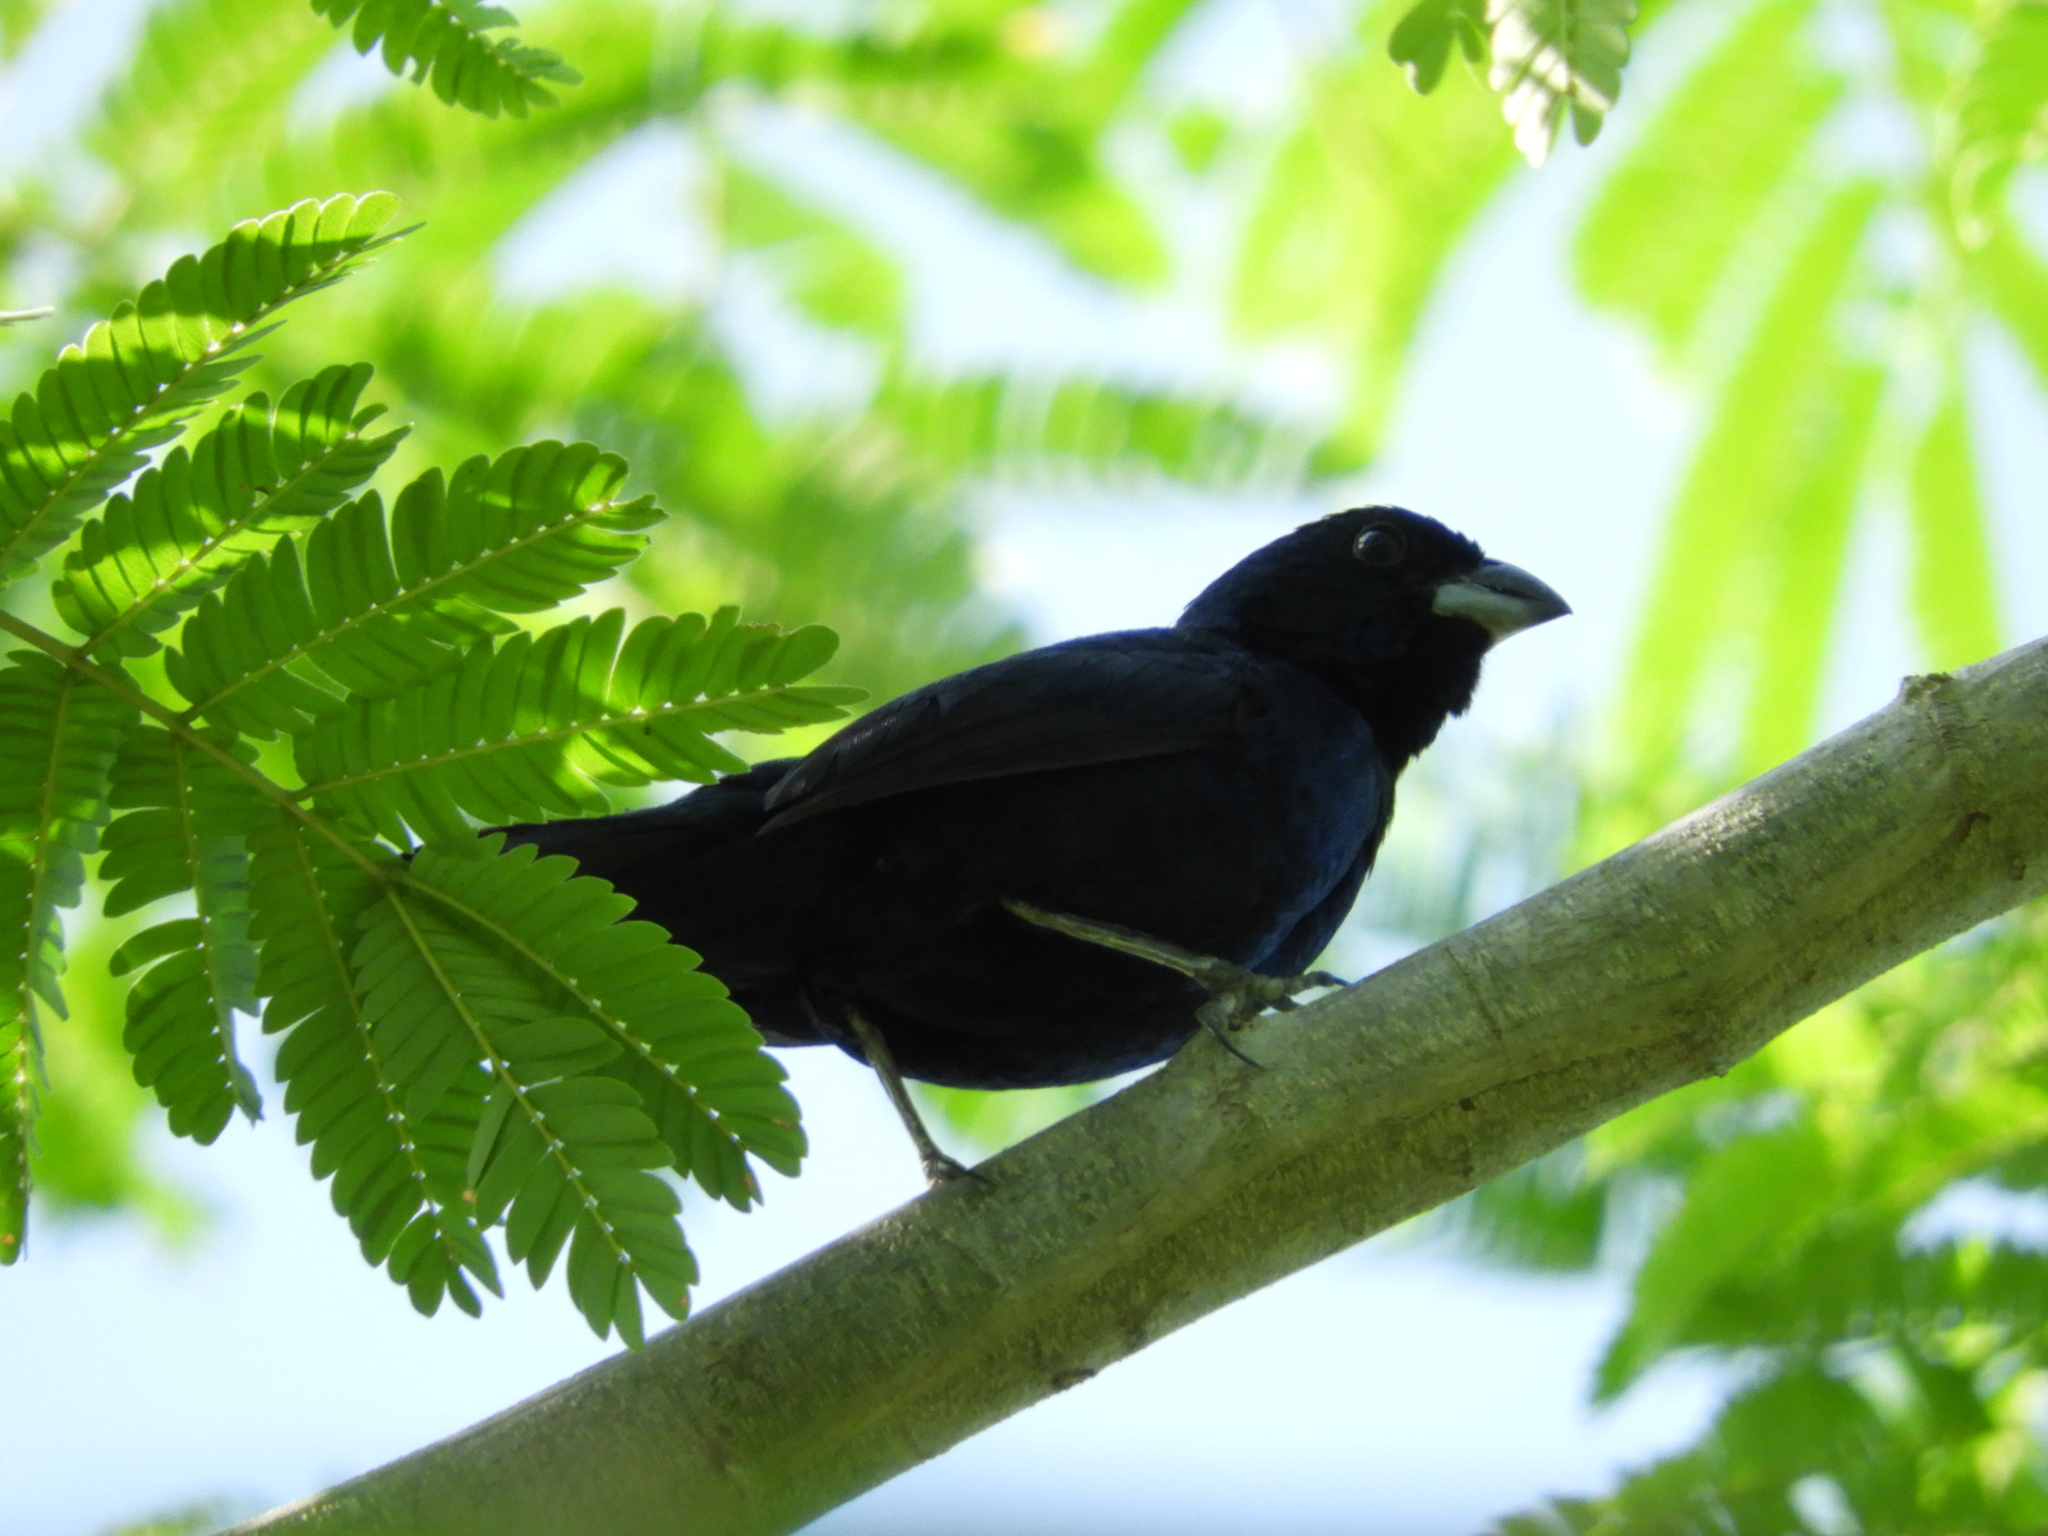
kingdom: Animalia
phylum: Chordata
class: Aves
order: Passeriformes
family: Thraupidae
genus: Volatinia
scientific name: Volatinia jacarina
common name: Blue-black grassquit
